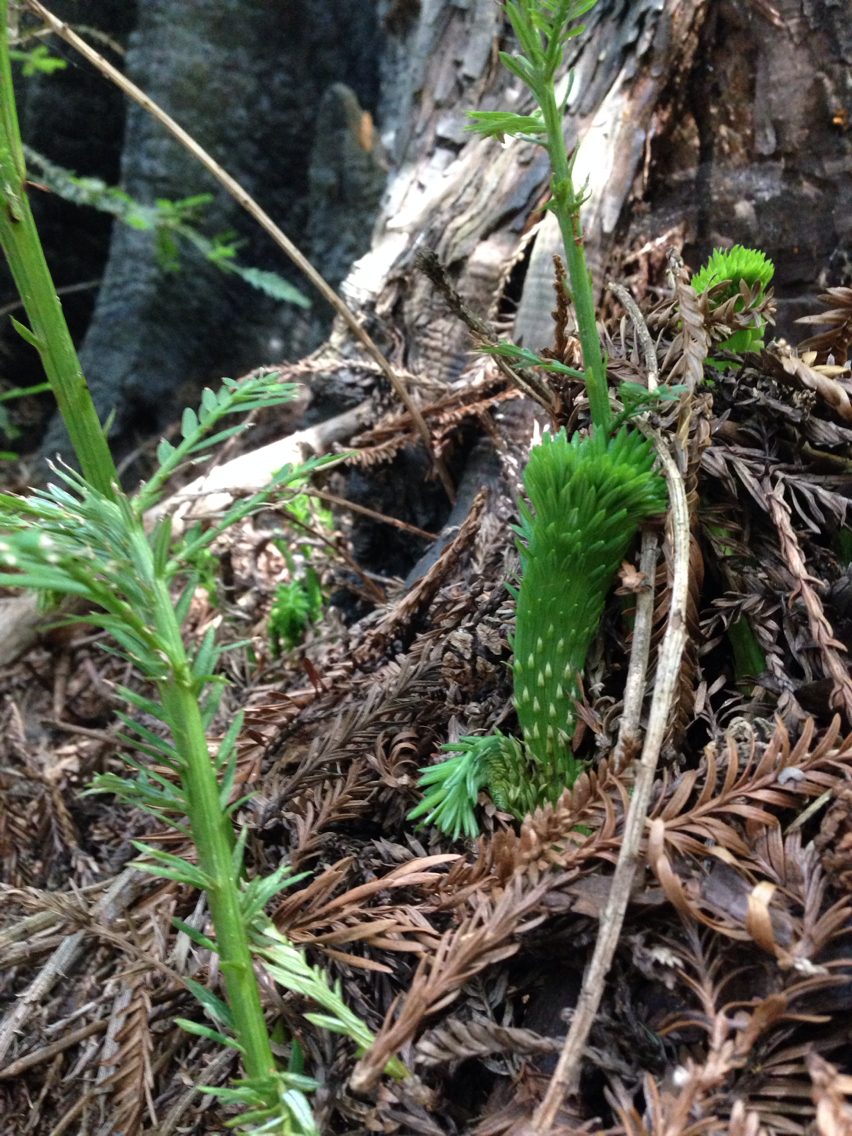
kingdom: Plantae
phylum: Tracheophyta
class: Pinopsida
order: Pinales
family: Cupressaceae
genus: Sequoia
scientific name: Sequoia sempervirens
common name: Coast redwood
